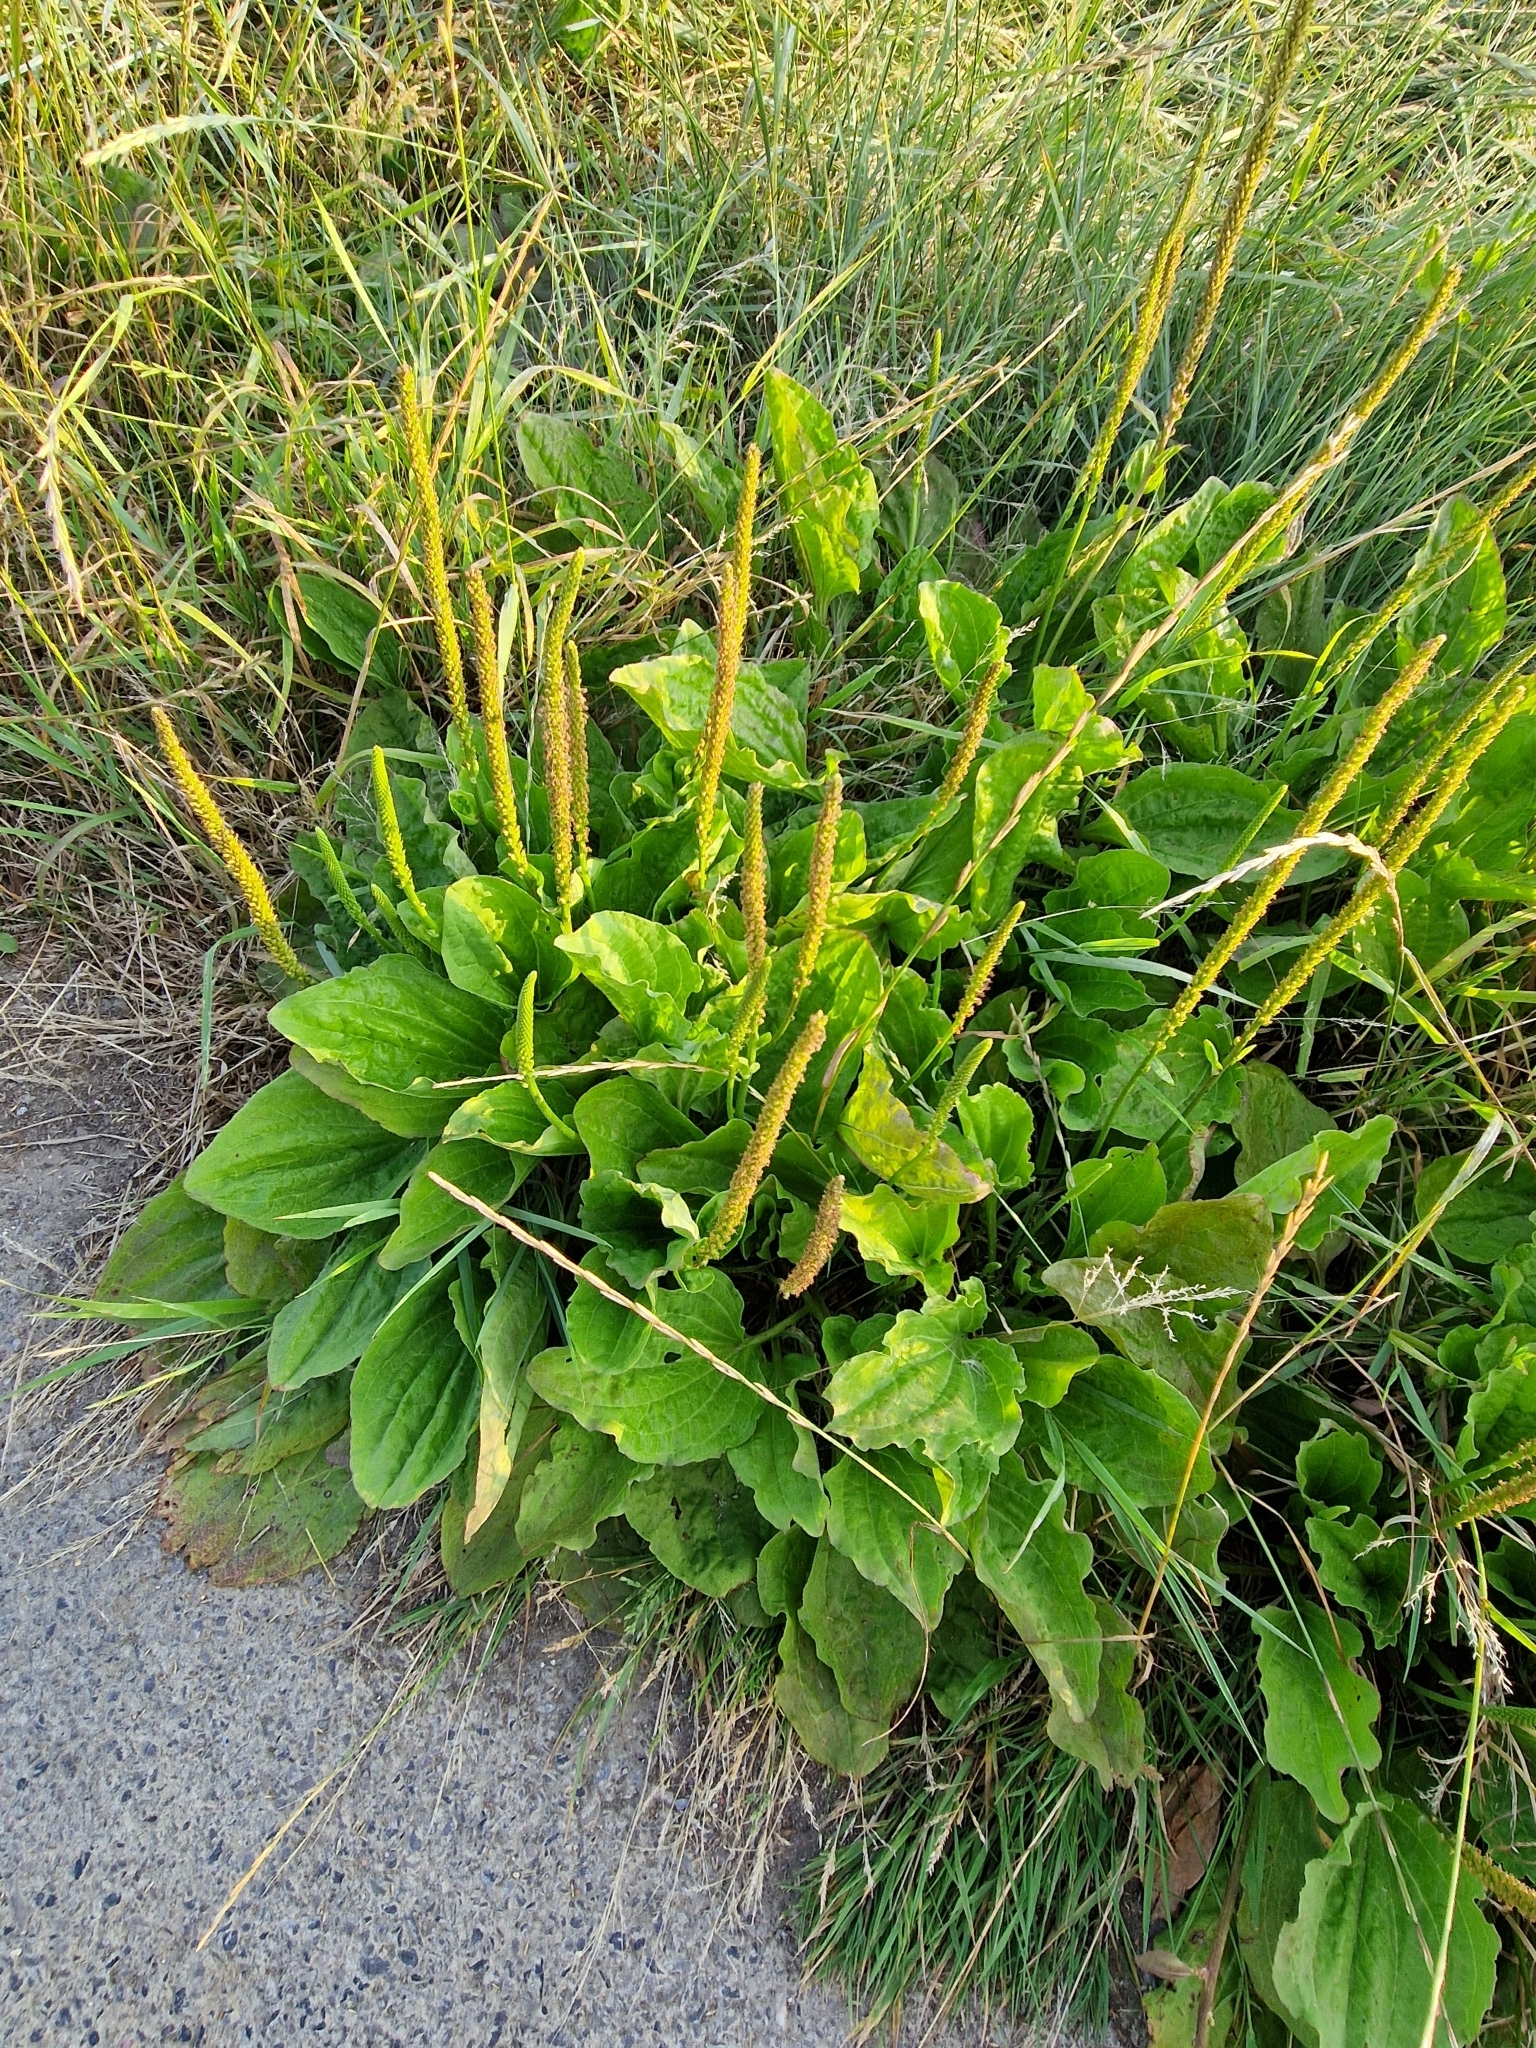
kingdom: Plantae
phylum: Tracheophyta
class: Magnoliopsida
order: Lamiales
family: Plantaginaceae
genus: Plantago
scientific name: Plantago major
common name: Common plantain
